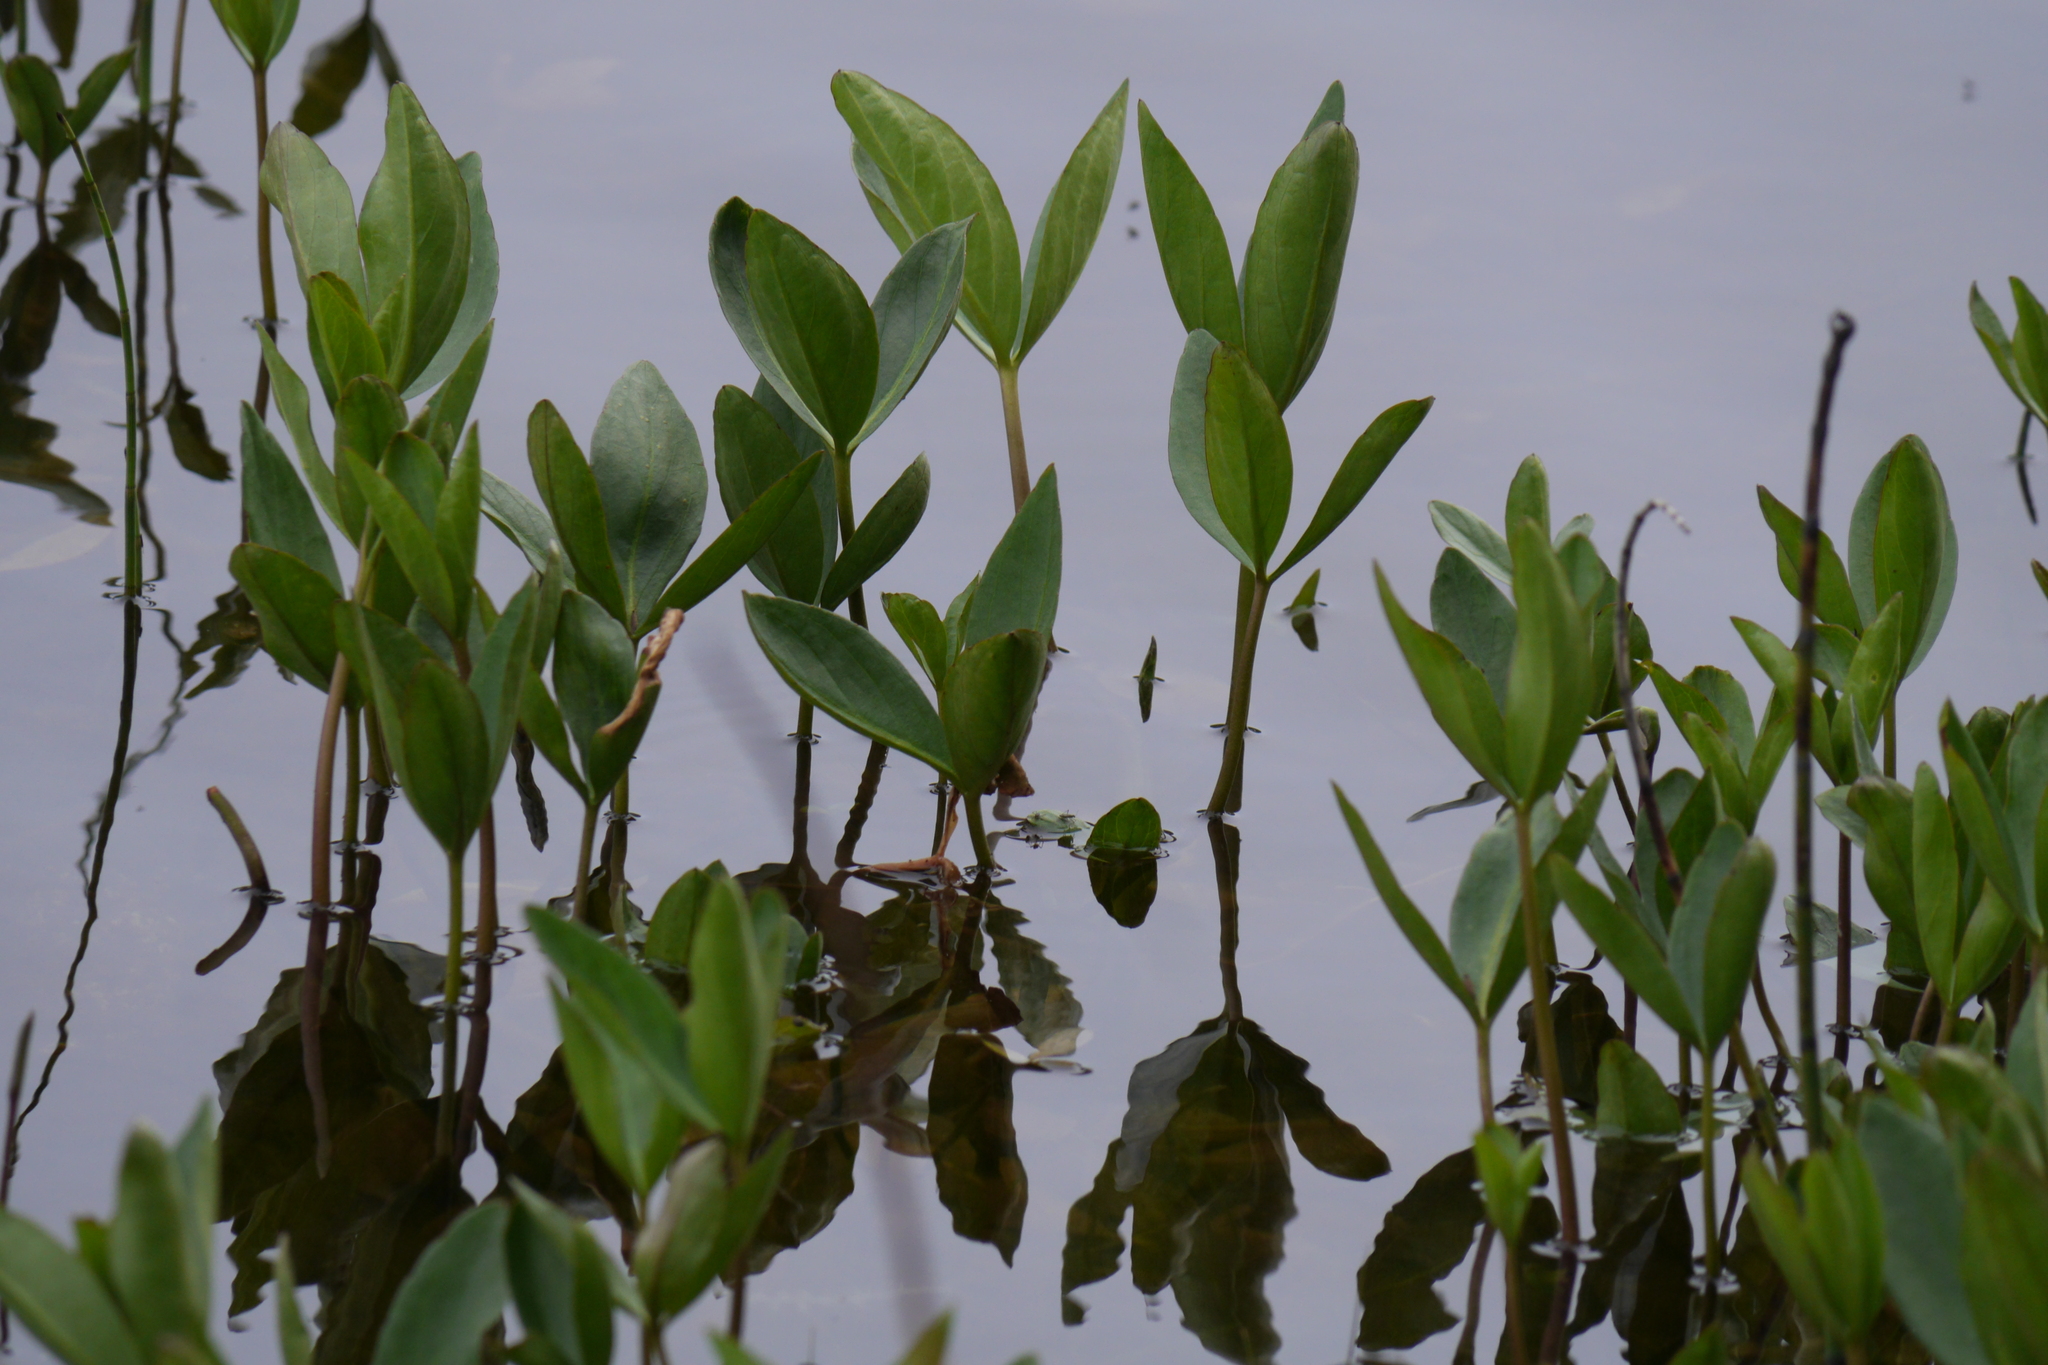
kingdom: Plantae
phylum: Tracheophyta
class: Magnoliopsida
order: Asterales
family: Menyanthaceae
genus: Menyanthes
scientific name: Menyanthes trifoliata
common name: Bogbean
